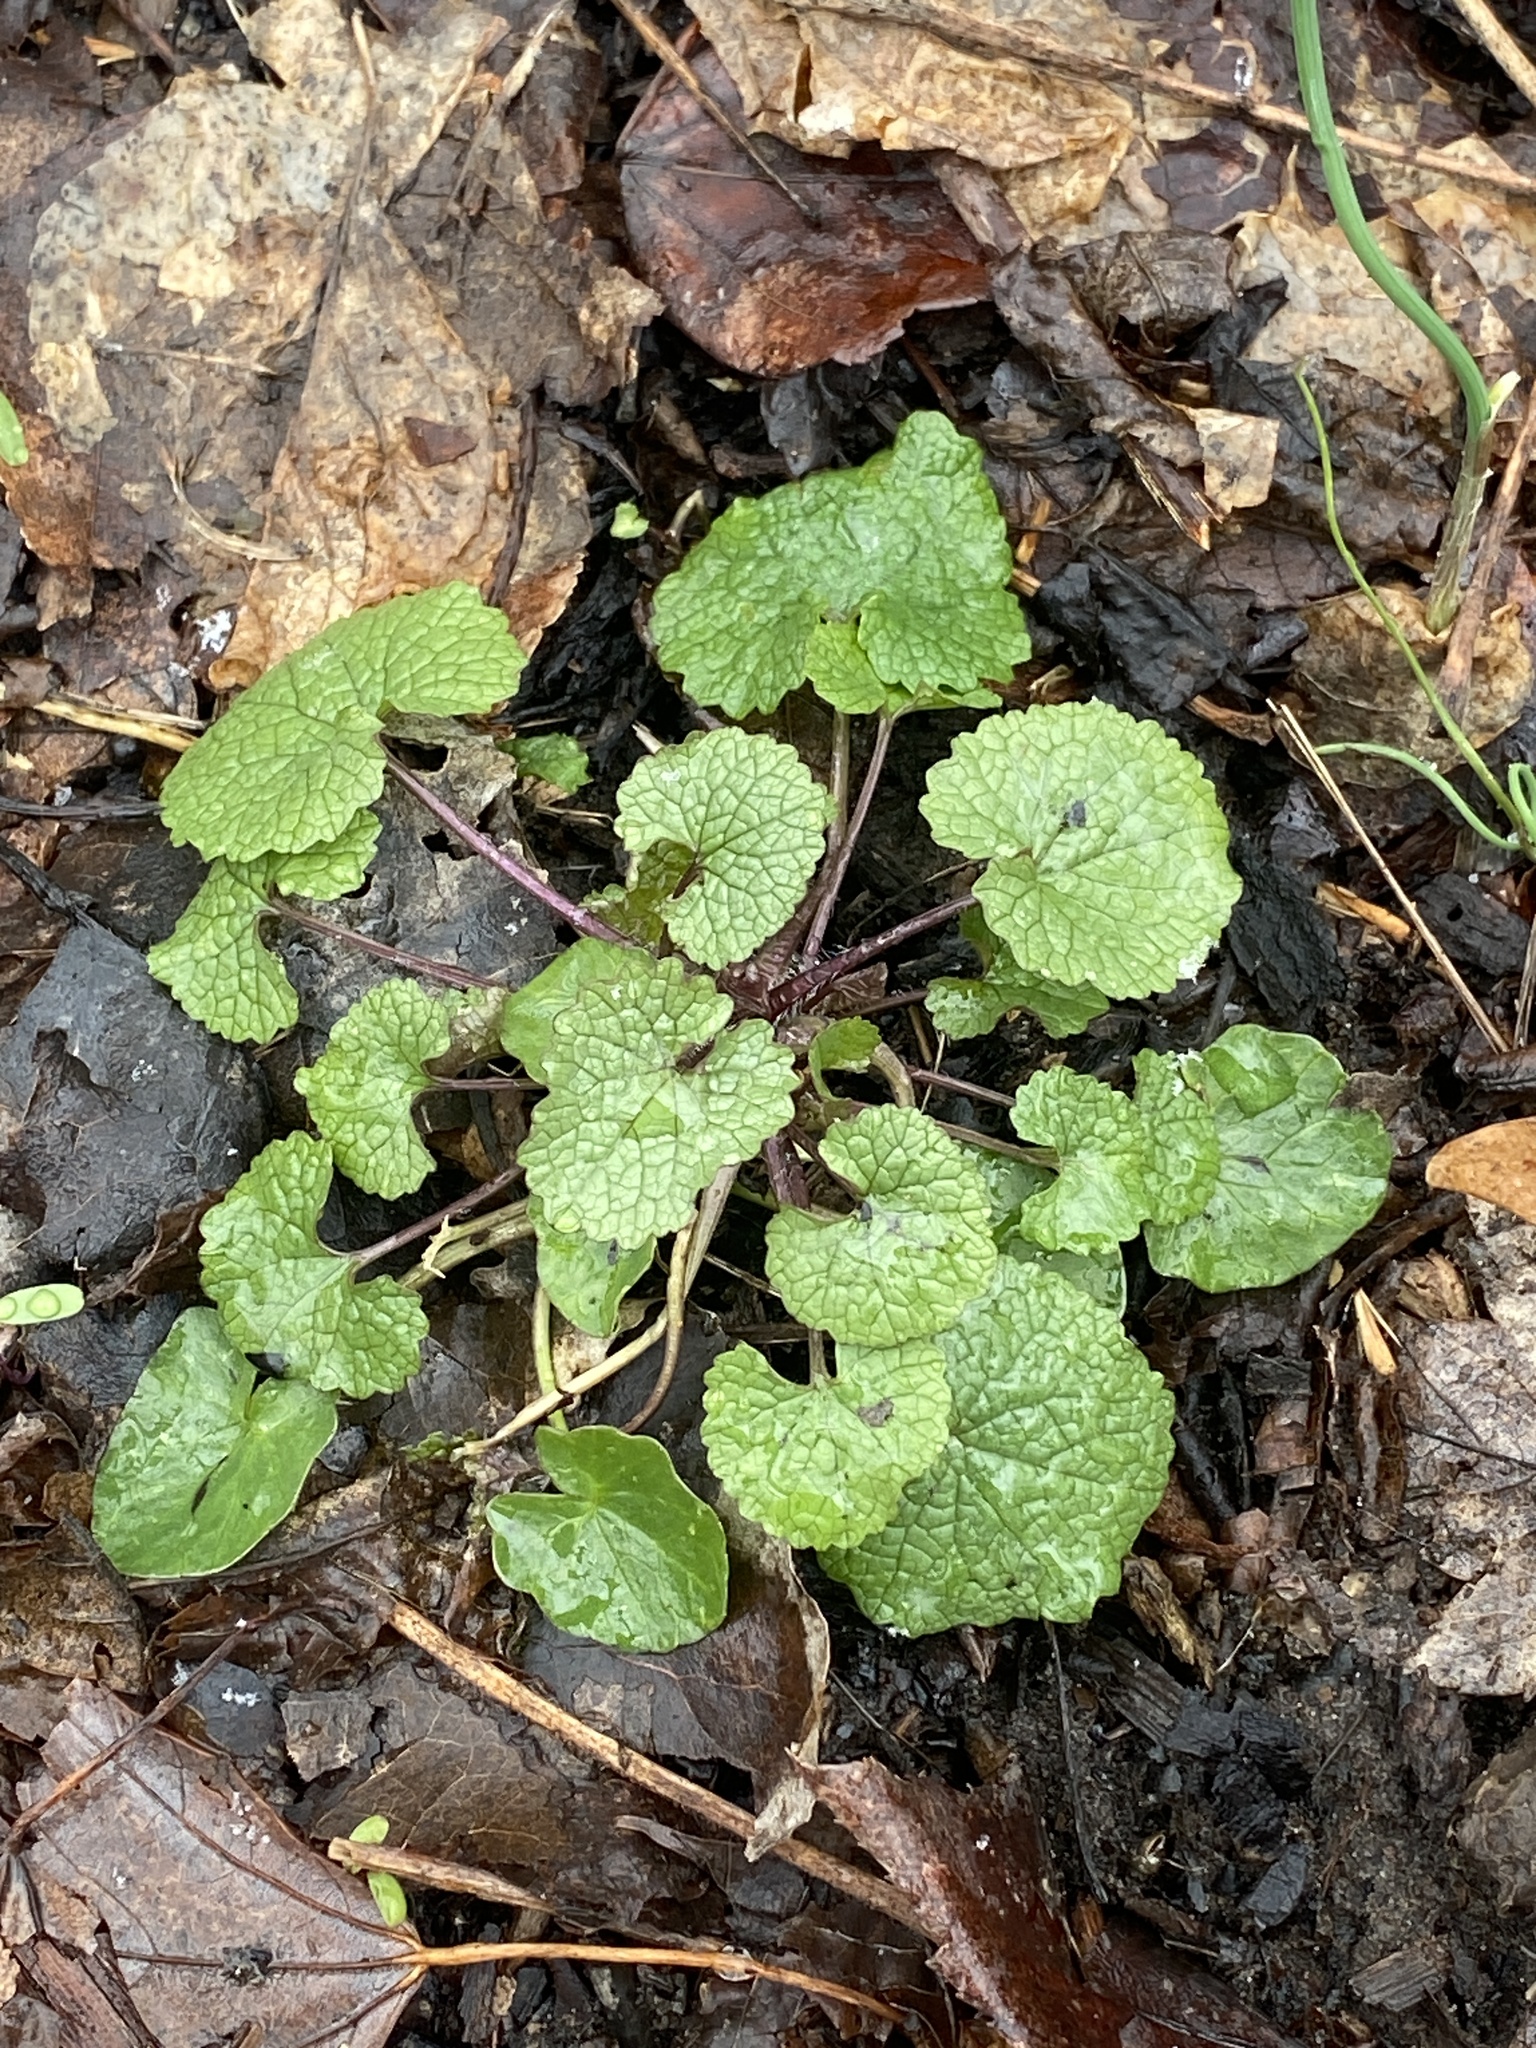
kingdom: Plantae
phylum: Tracheophyta
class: Magnoliopsida
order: Brassicales
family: Brassicaceae
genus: Alliaria
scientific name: Alliaria petiolata
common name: Garlic mustard
